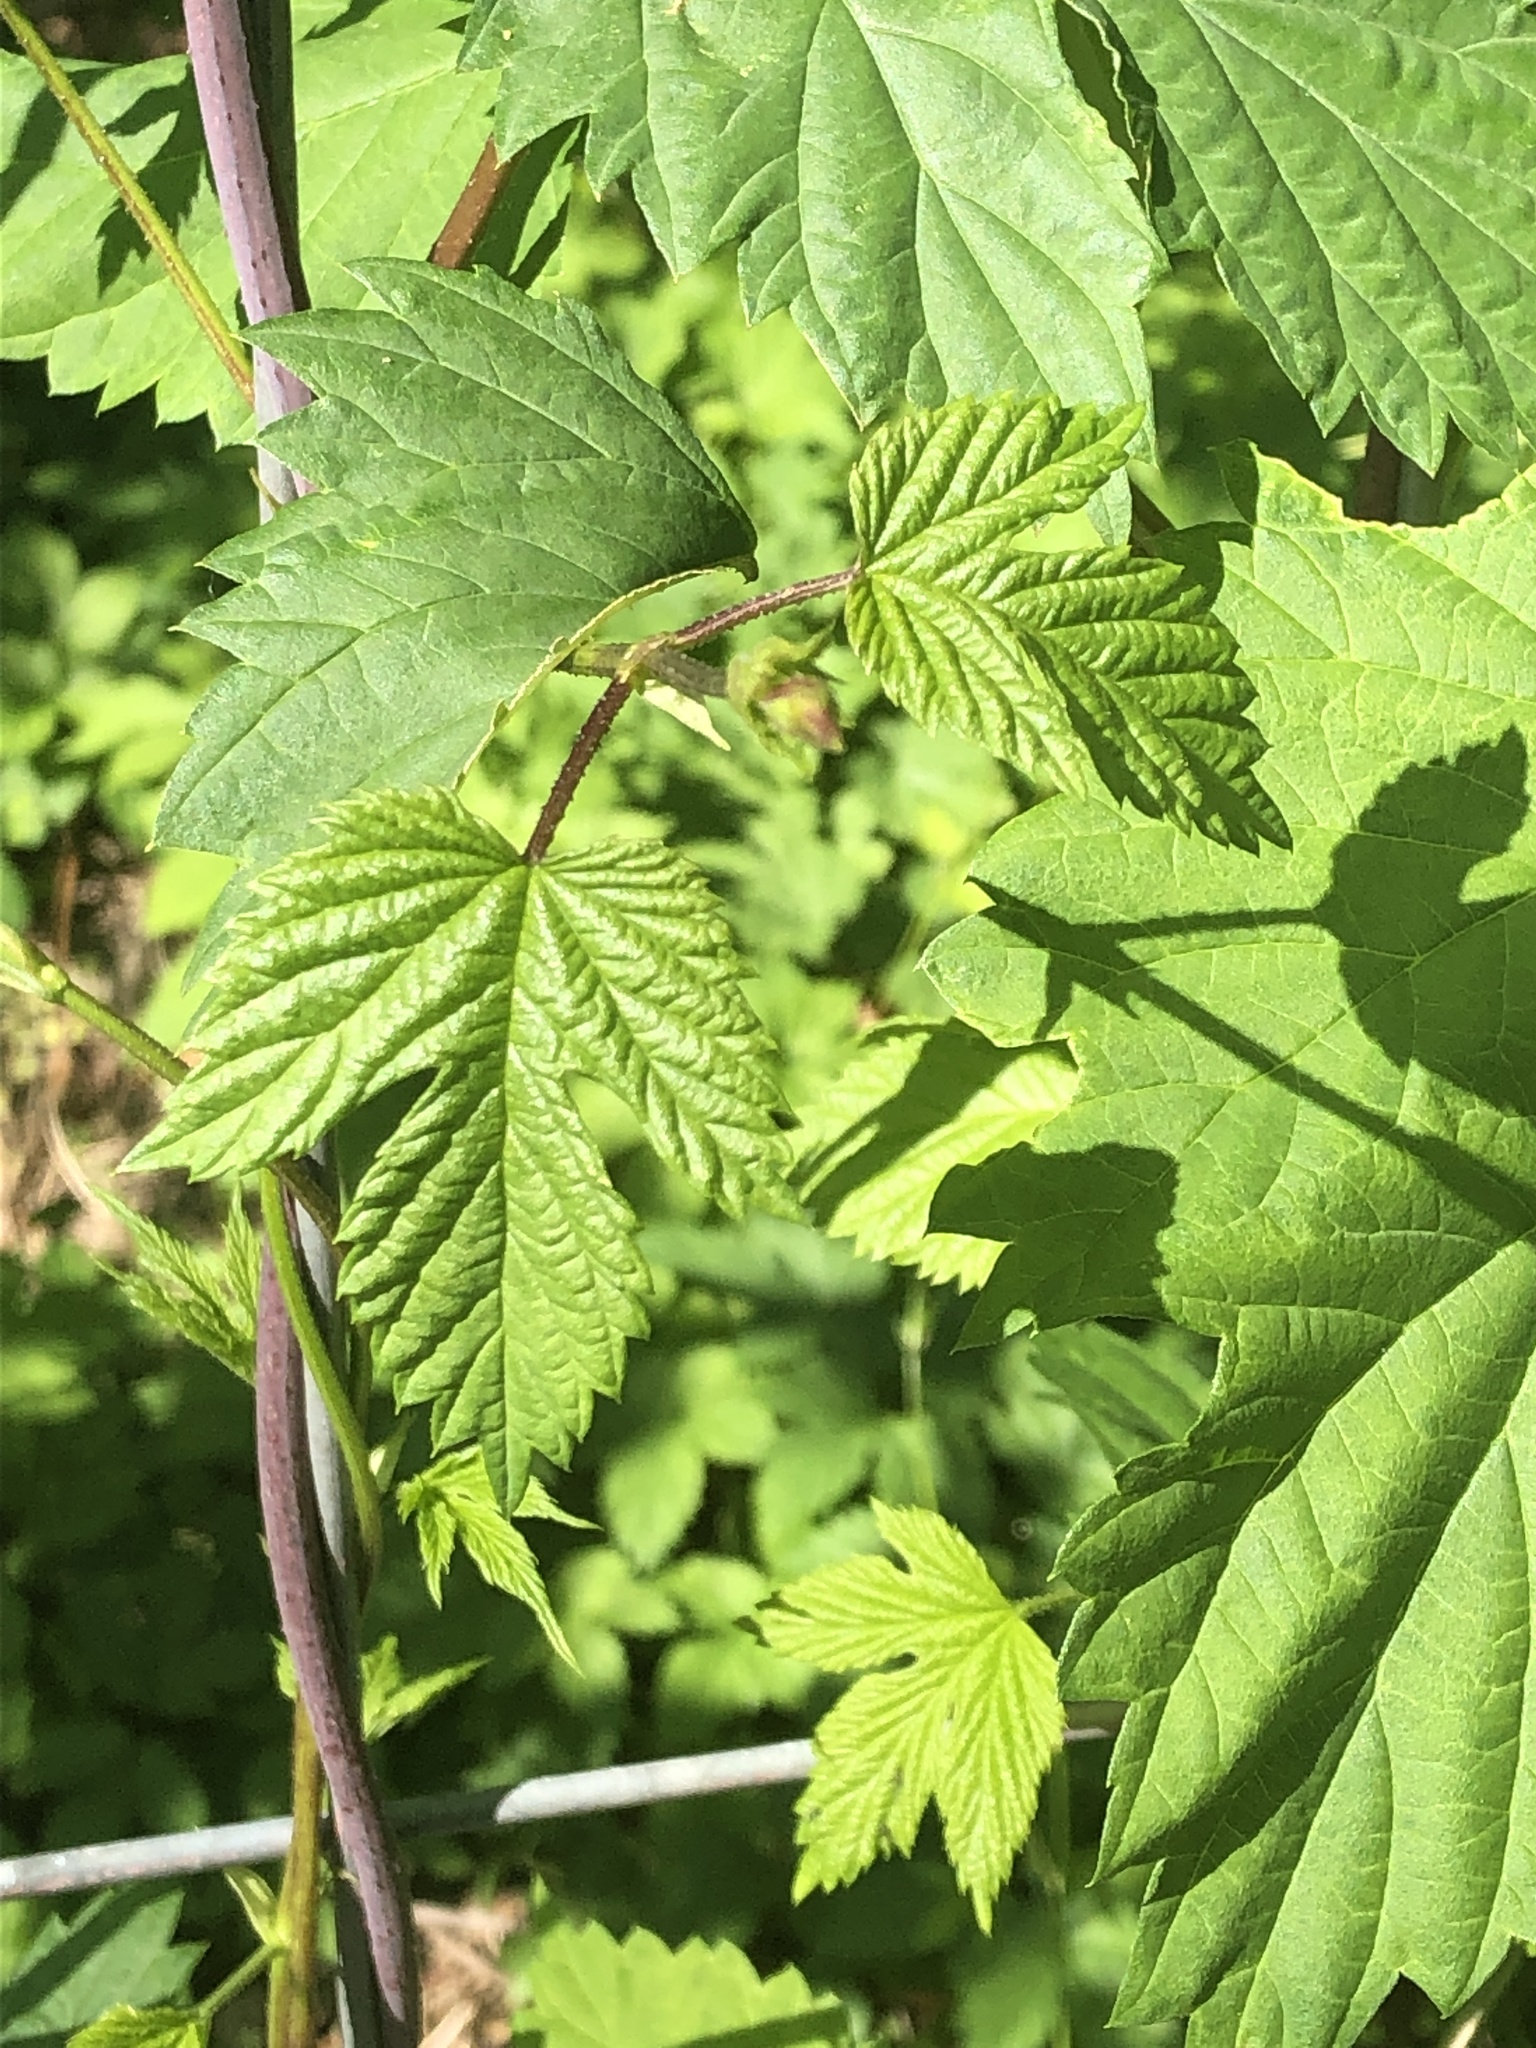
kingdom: Plantae
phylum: Tracheophyta
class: Magnoliopsida
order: Rosales
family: Cannabaceae
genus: Humulus
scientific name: Humulus lupulus
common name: Hop
